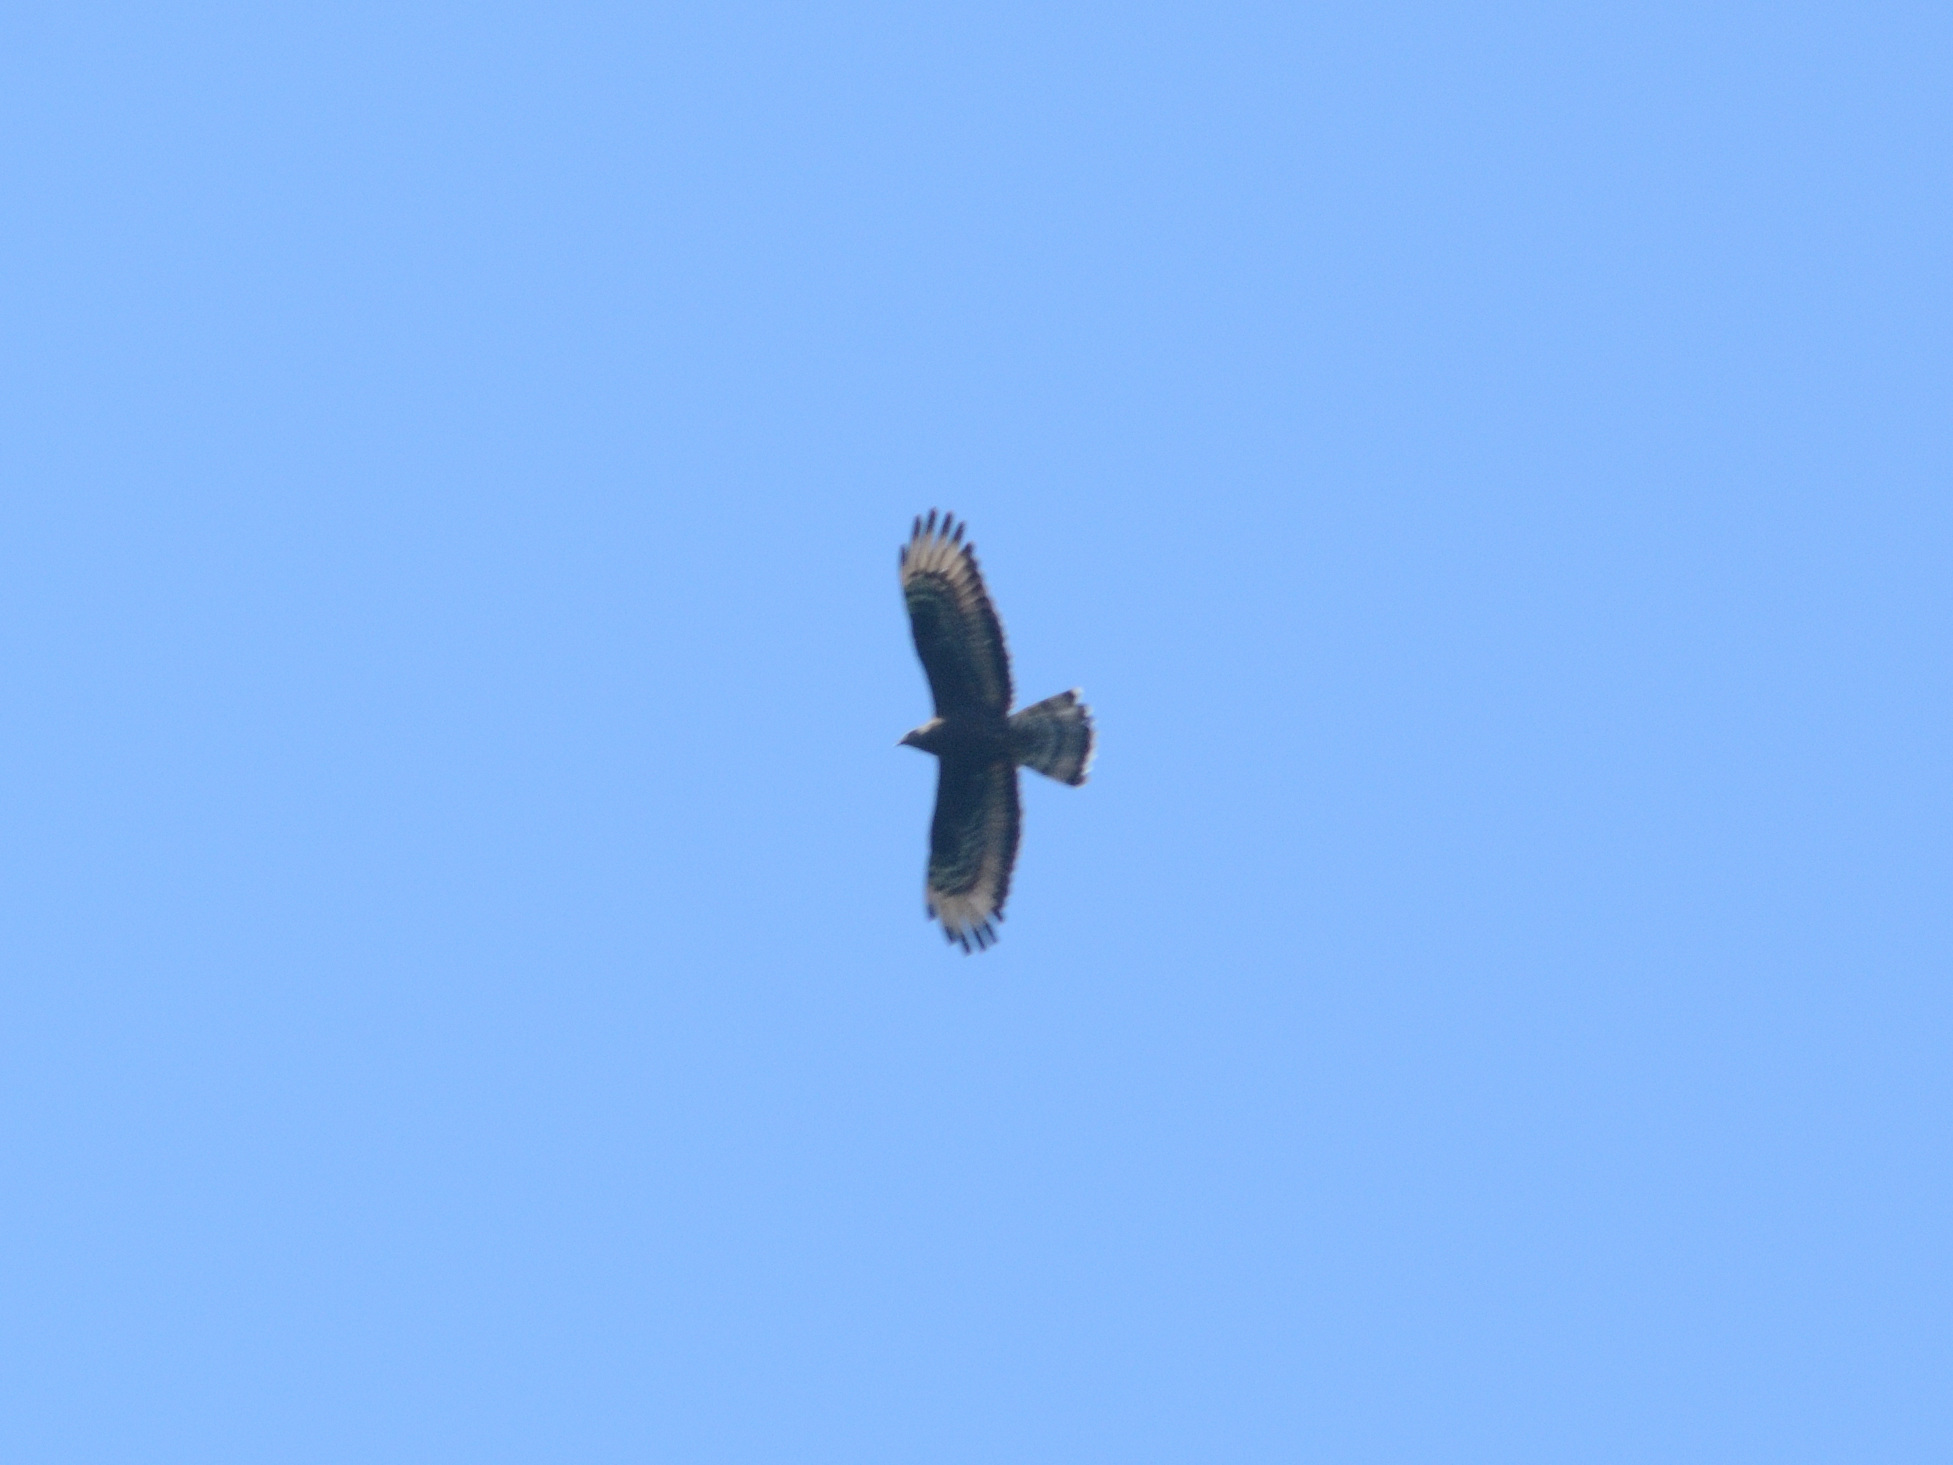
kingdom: Animalia
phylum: Chordata
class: Aves
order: Accipitriformes
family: Accipitridae
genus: Pernis
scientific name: Pernis apivorus
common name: European honey buzzard
